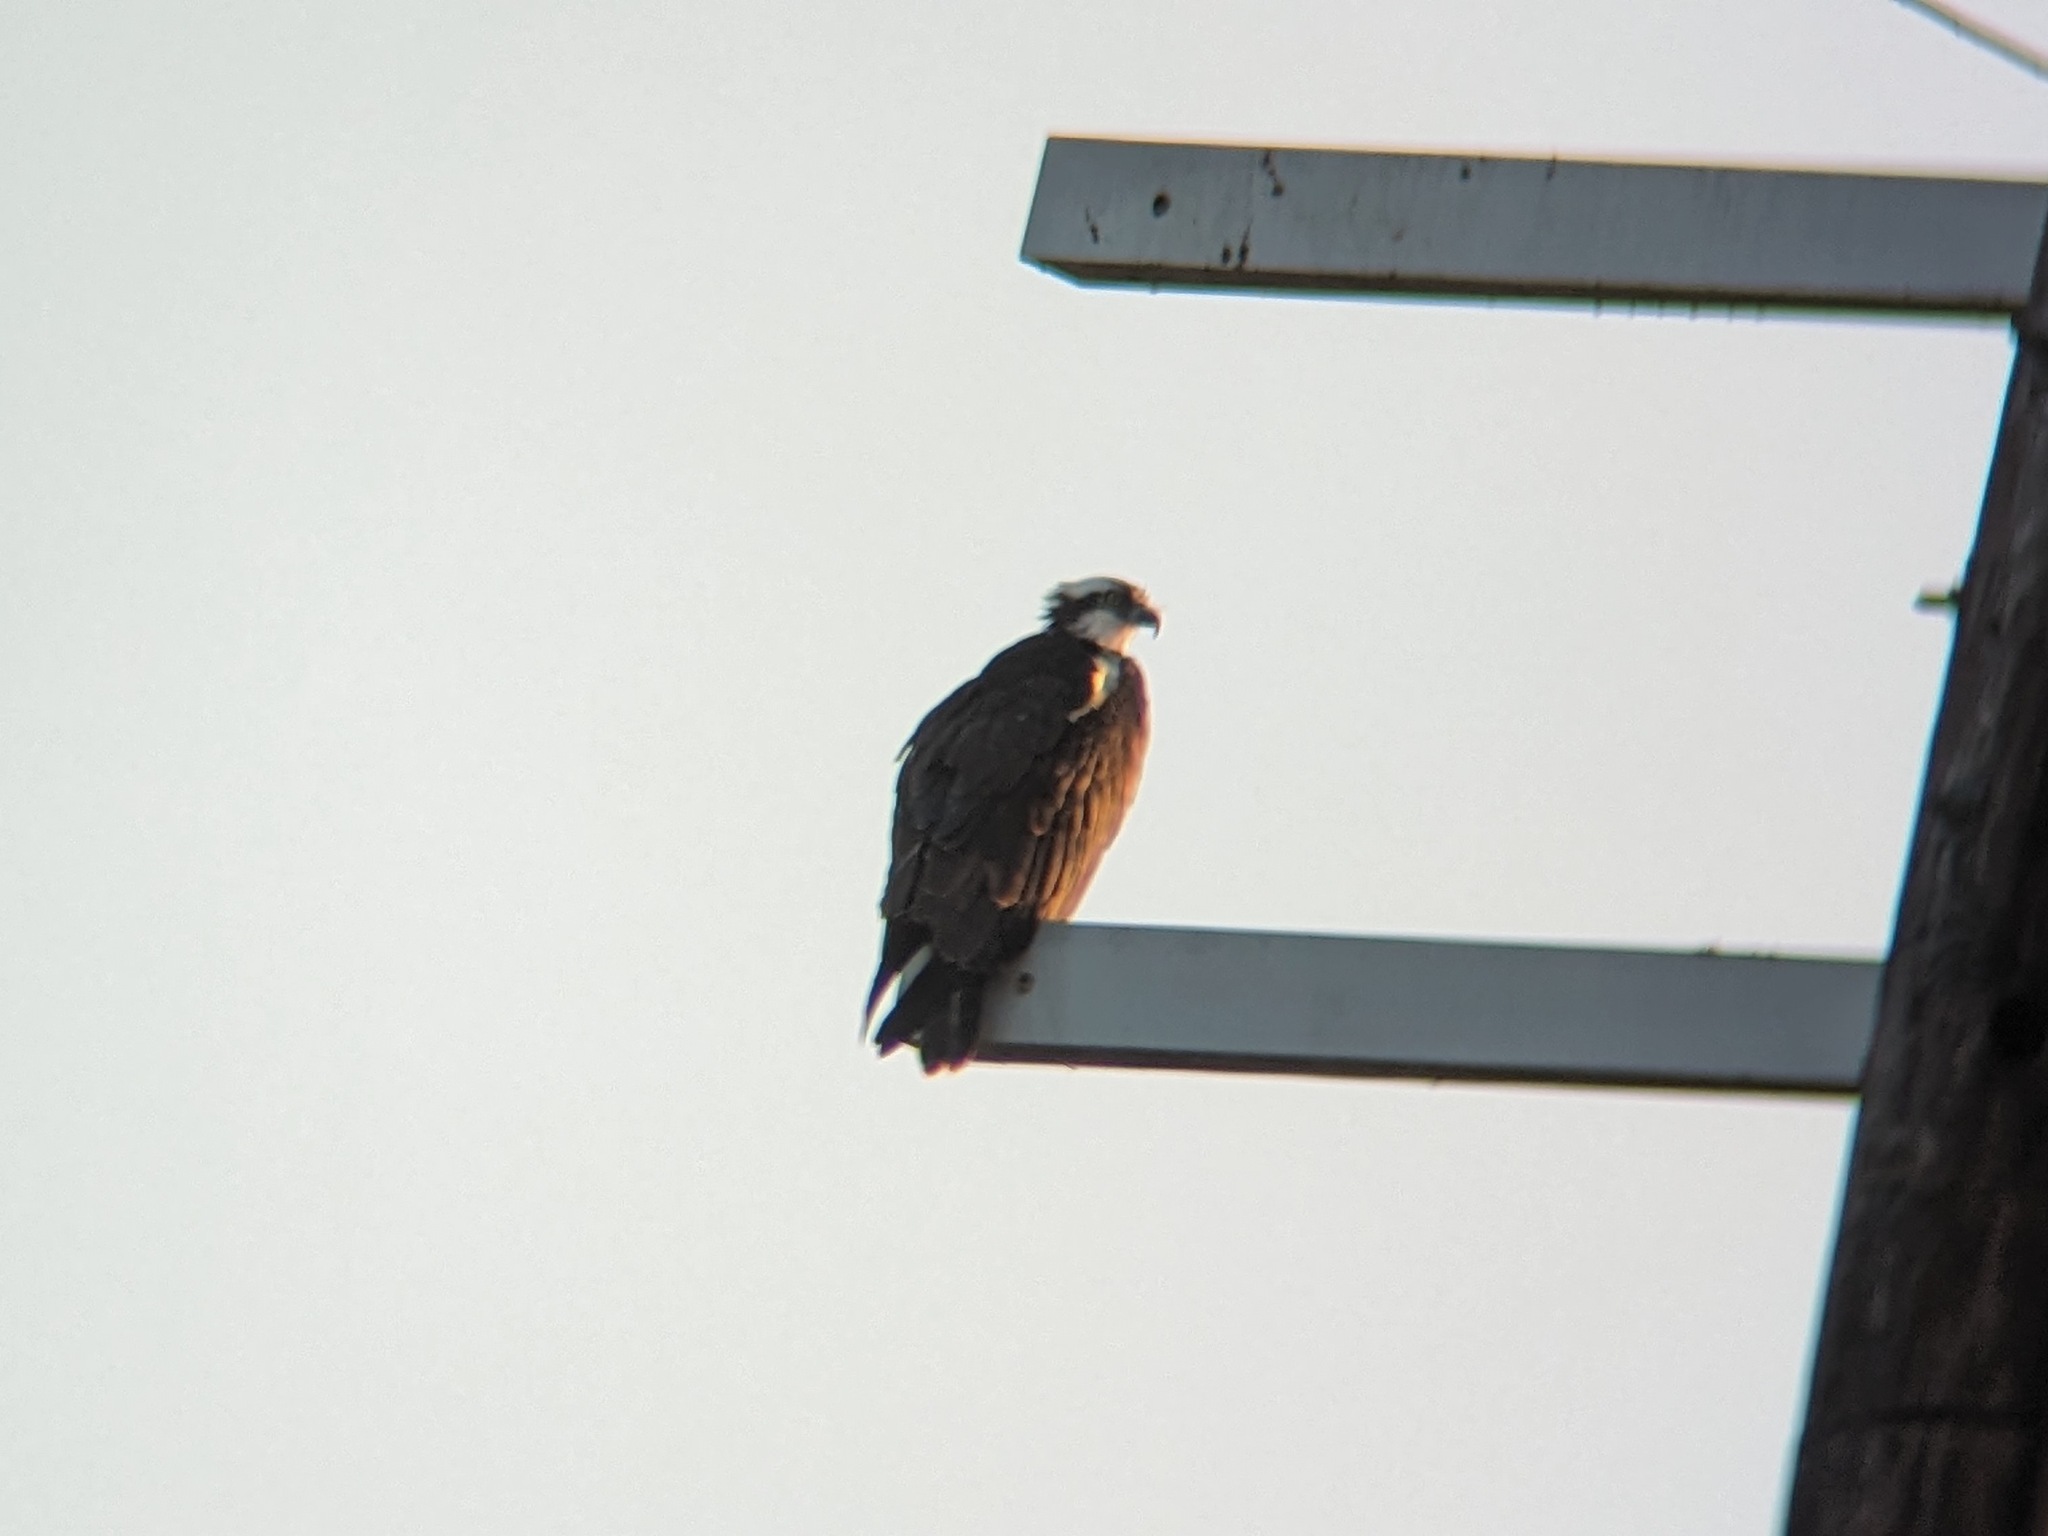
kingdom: Animalia
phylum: Chordata
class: Aves
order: Accipitriformes
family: Pandionidae
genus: Pandion
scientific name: Pandion haliaetus
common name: Osprey
